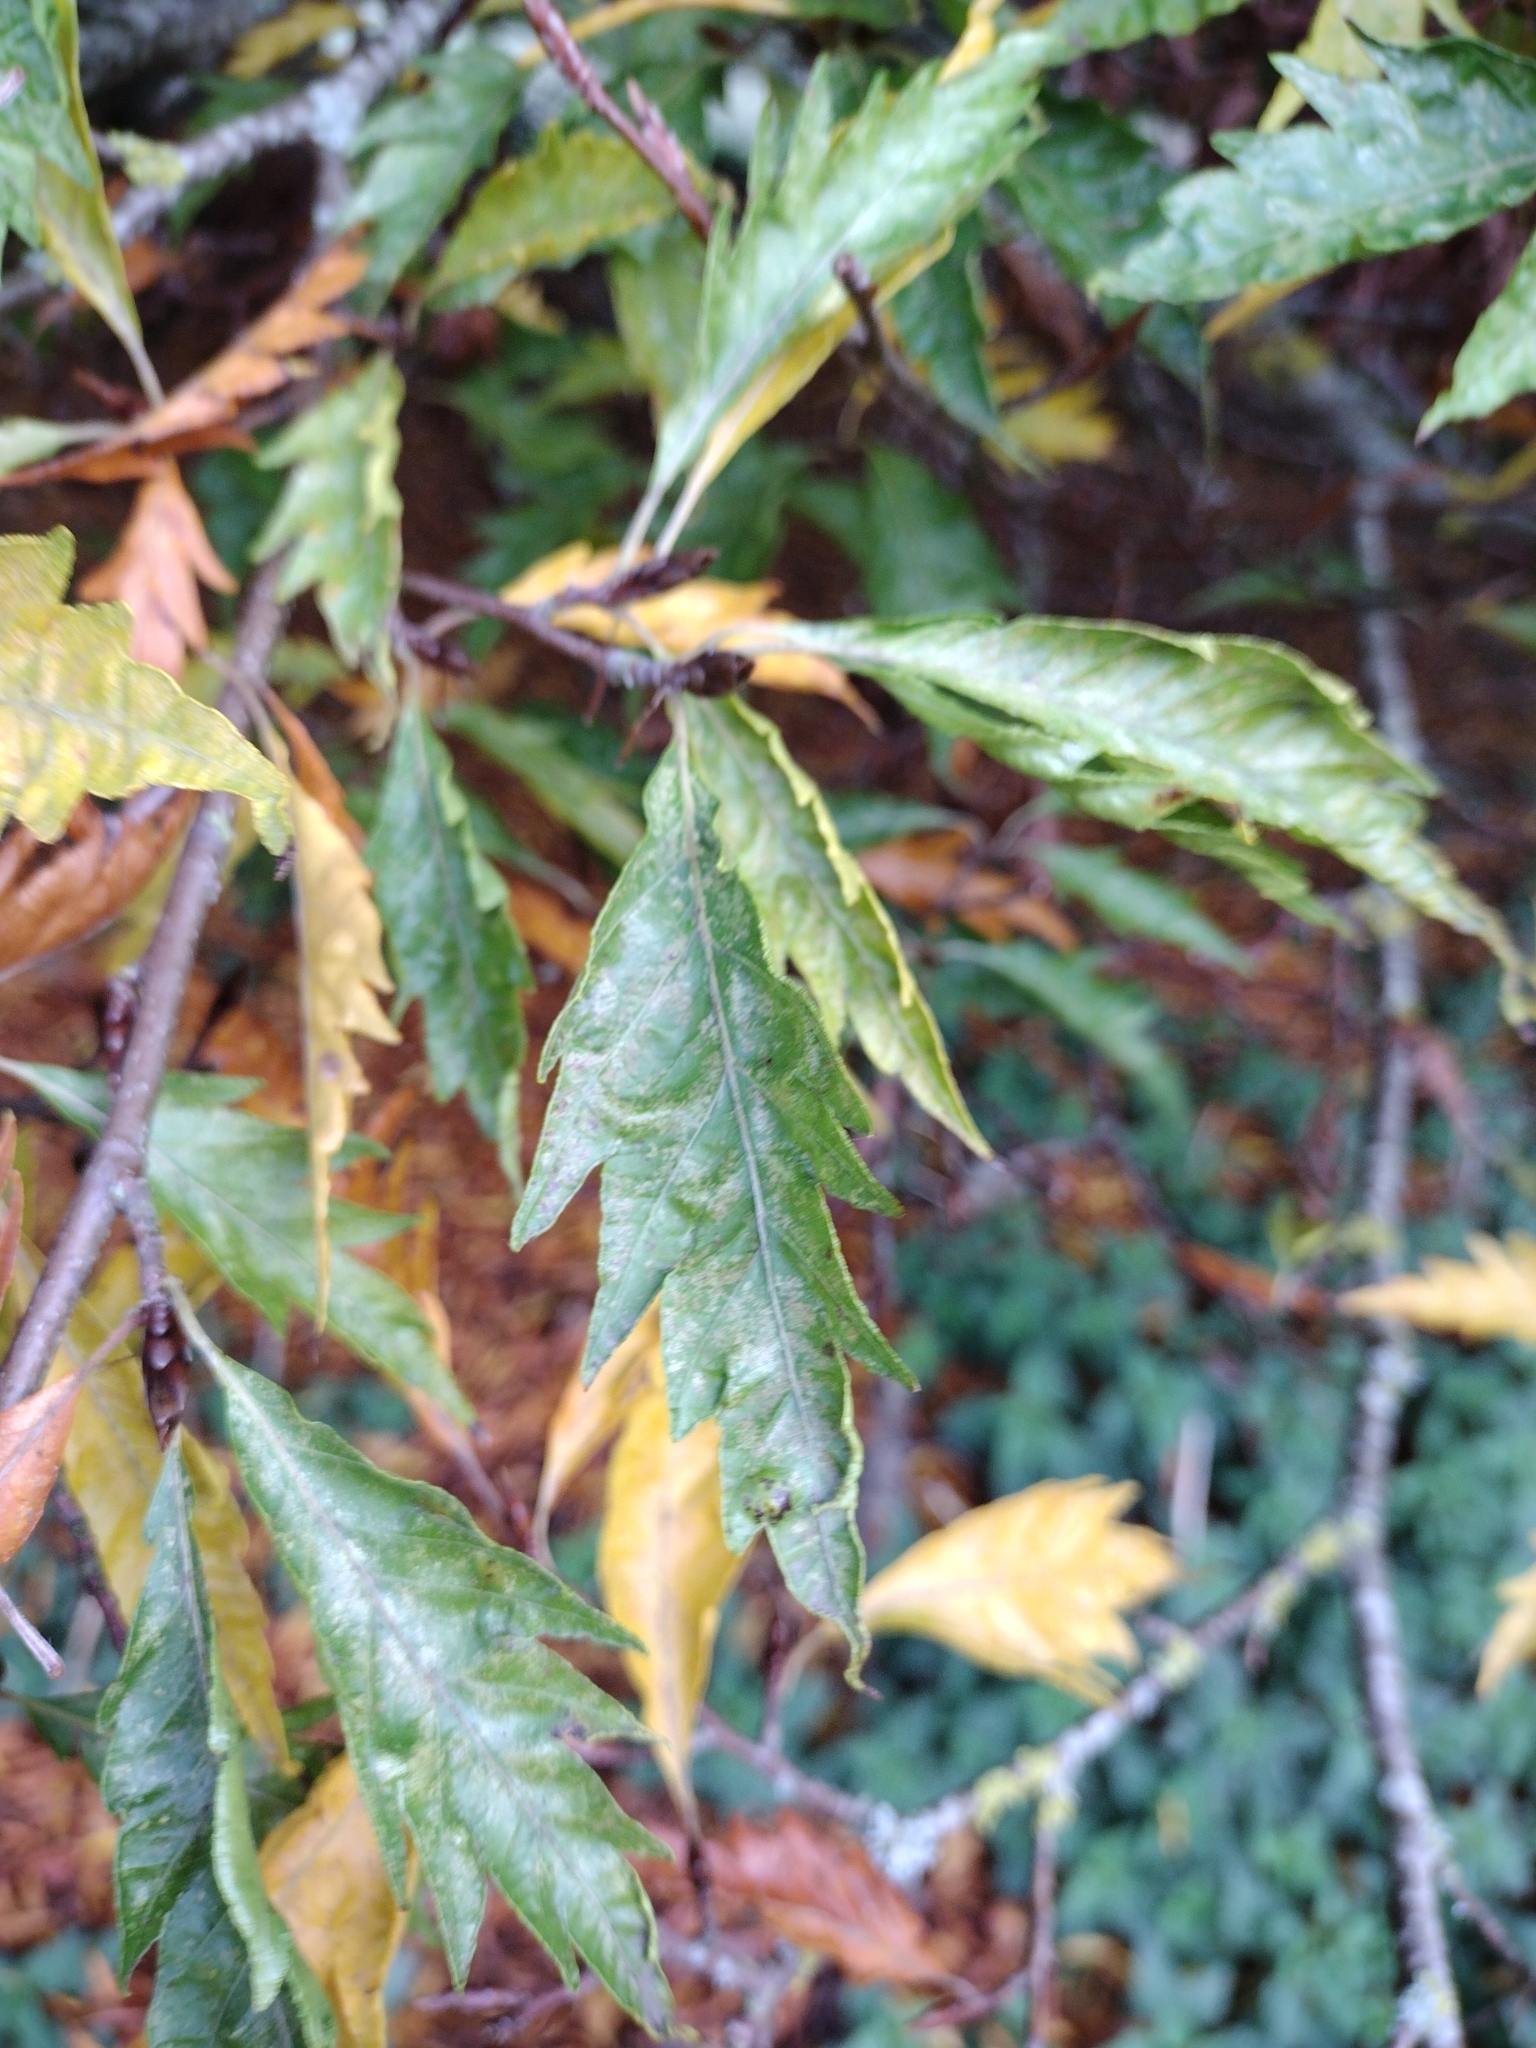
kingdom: Plantae
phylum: Tracheophyta
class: Magnoliopsida
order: Fagales
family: Fagaceae
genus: Quercus
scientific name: Quercus cerris
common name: Turkey oak
